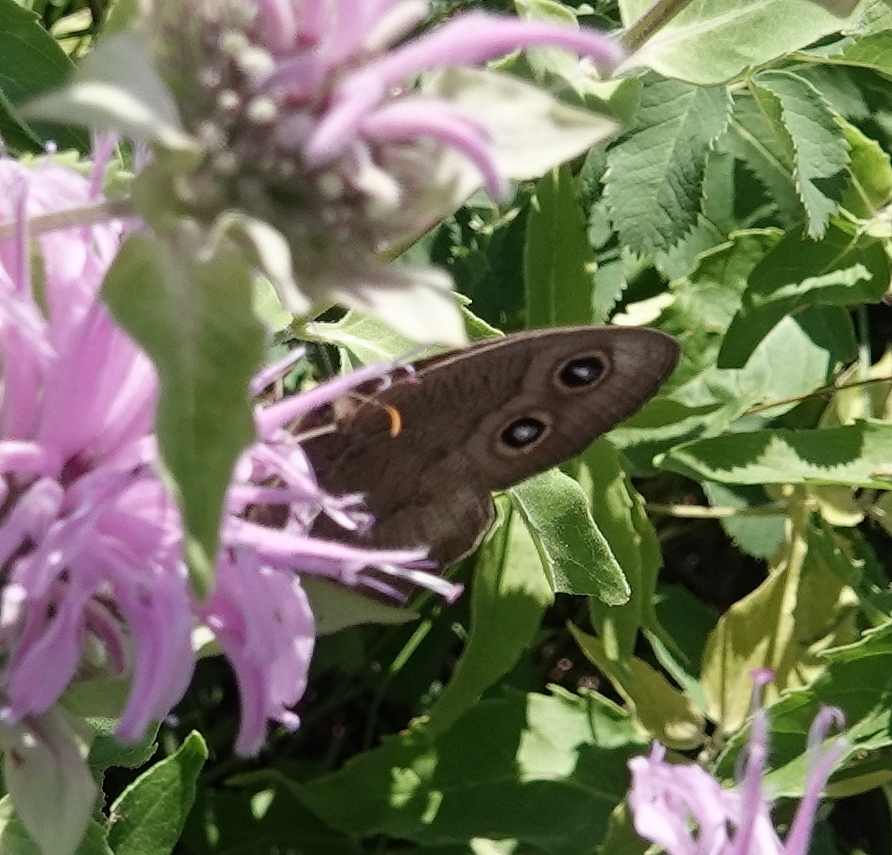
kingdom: Animalia
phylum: Arthropoda
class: Insecta
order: Lepidoptera
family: Nymphalidae
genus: Cercyonis
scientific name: Cercyonis pegala
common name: Common wood-nymph
